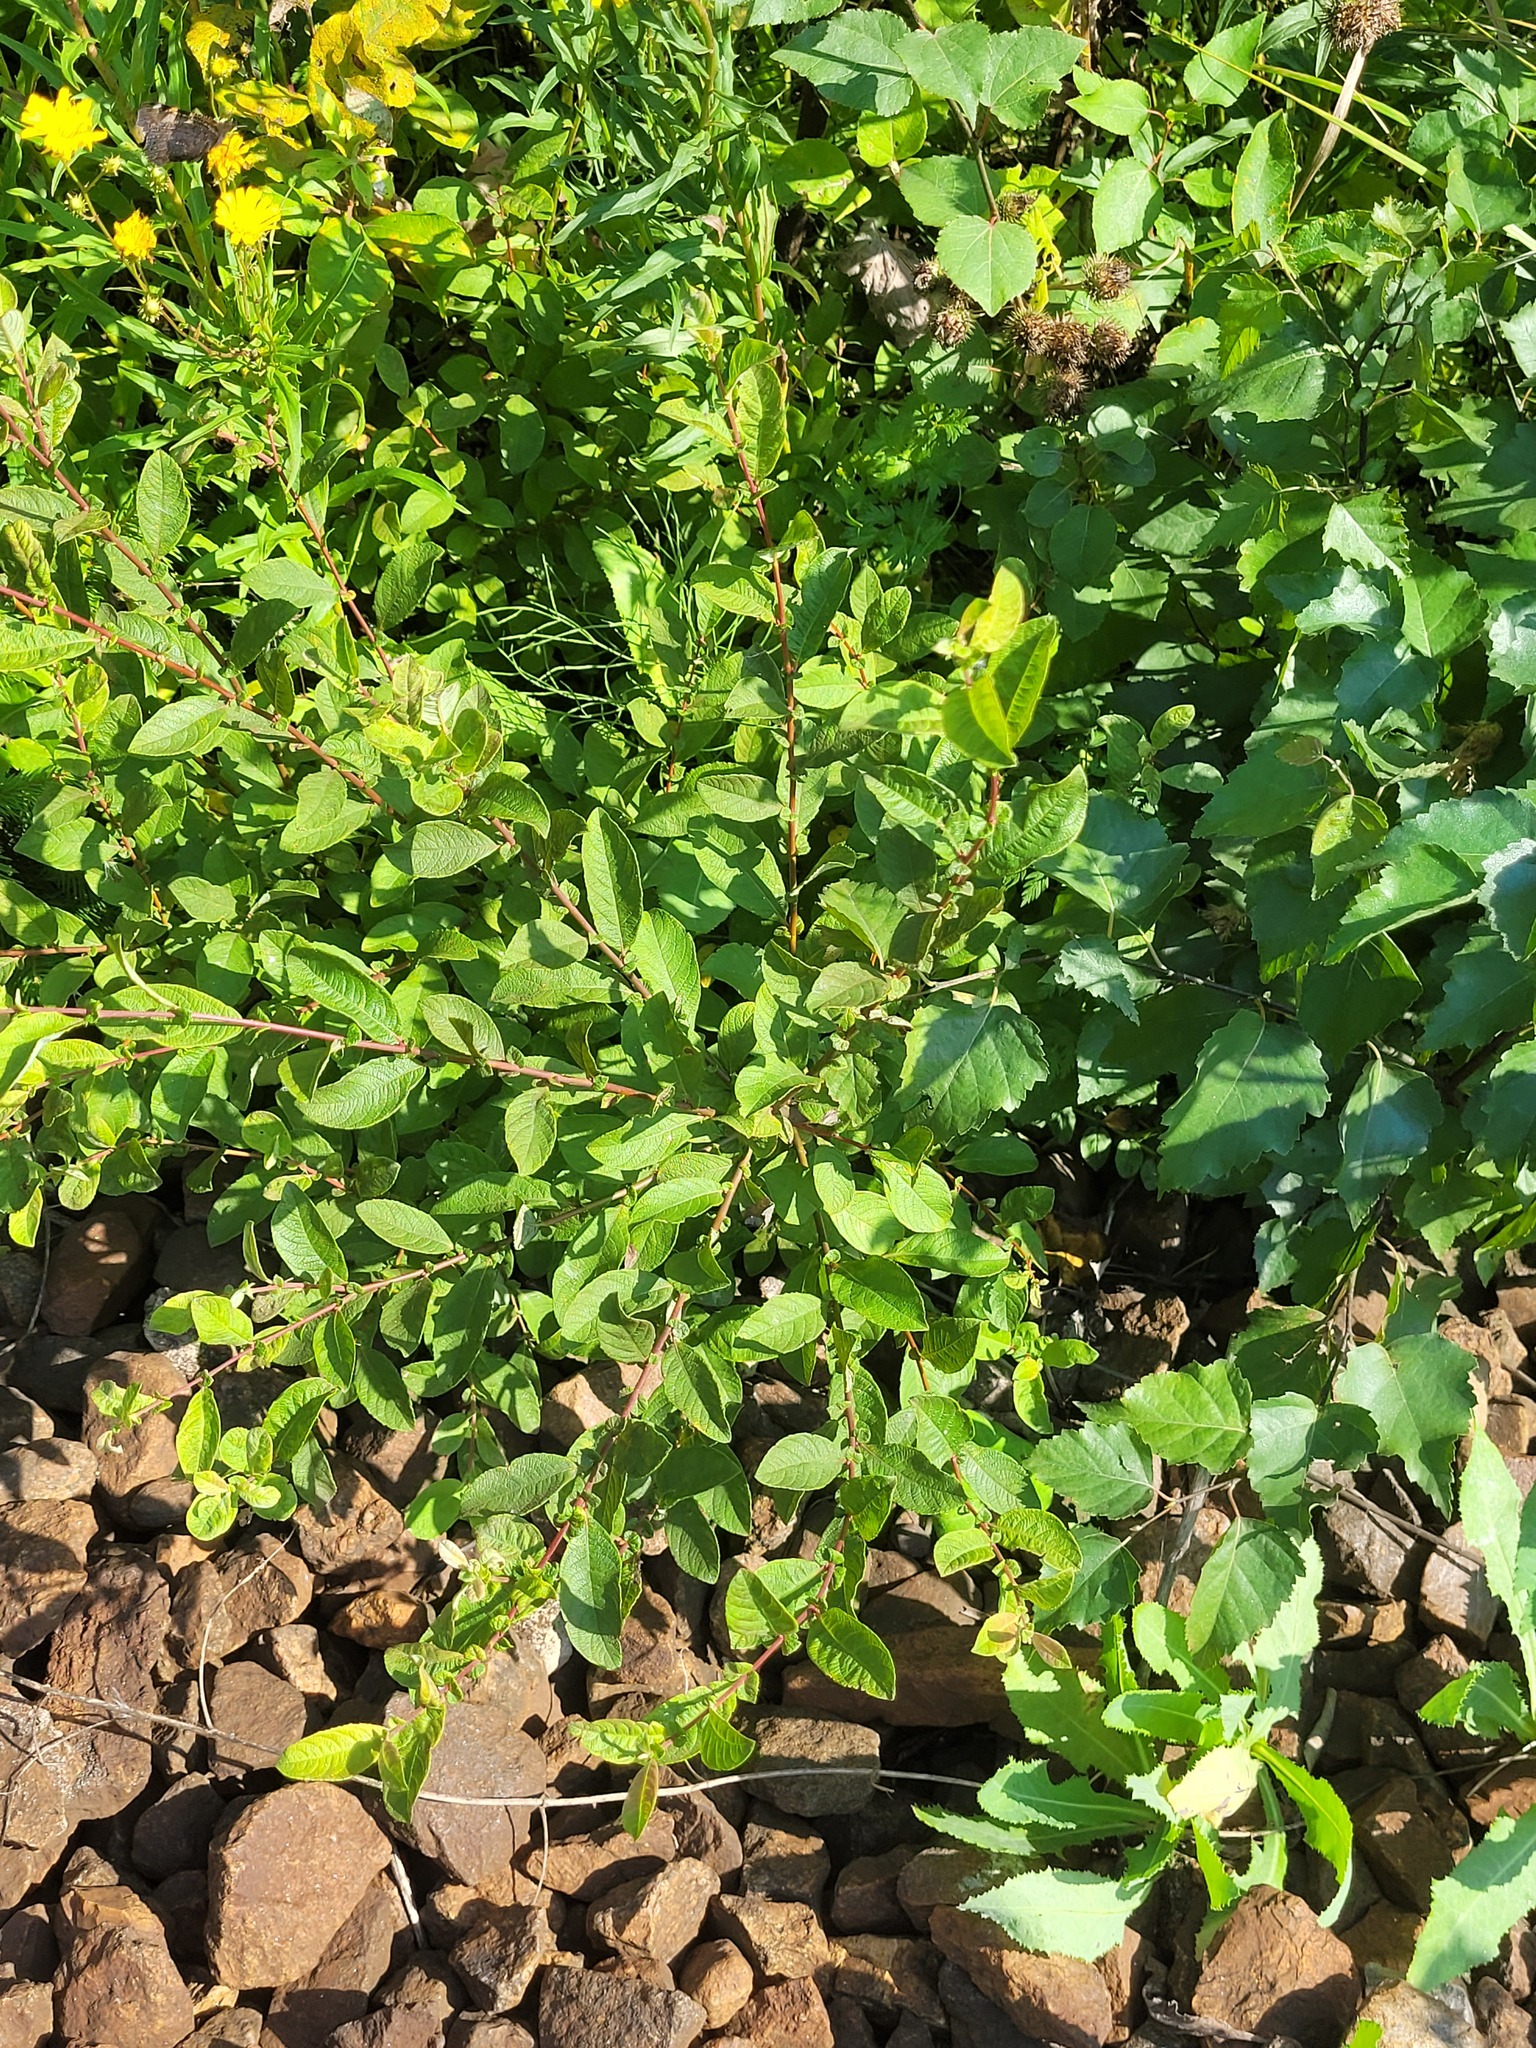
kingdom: Plantae
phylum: Tracheophyta
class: Magnoliopsida
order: Malpighiales
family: Salicaceae
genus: Salix
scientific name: Salix aurita
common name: Eared willow
